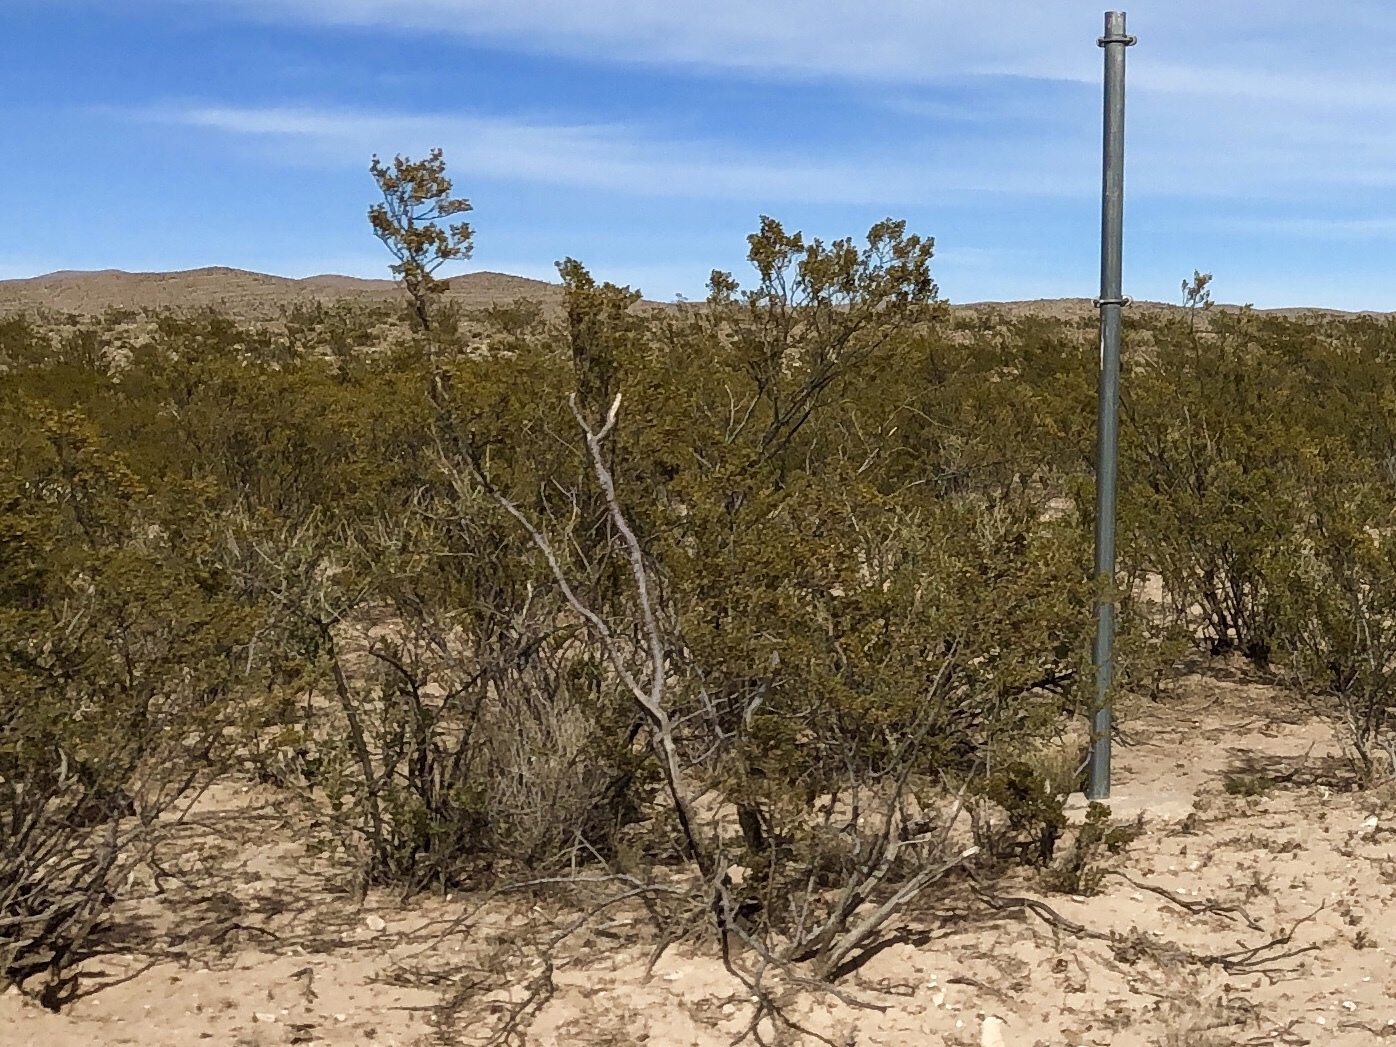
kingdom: Plantae
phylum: Tracheophyta
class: Magnoliopsida
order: Zygophyllales
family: Zygophyllaceae
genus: Larrea
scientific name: Larrea tridentata
